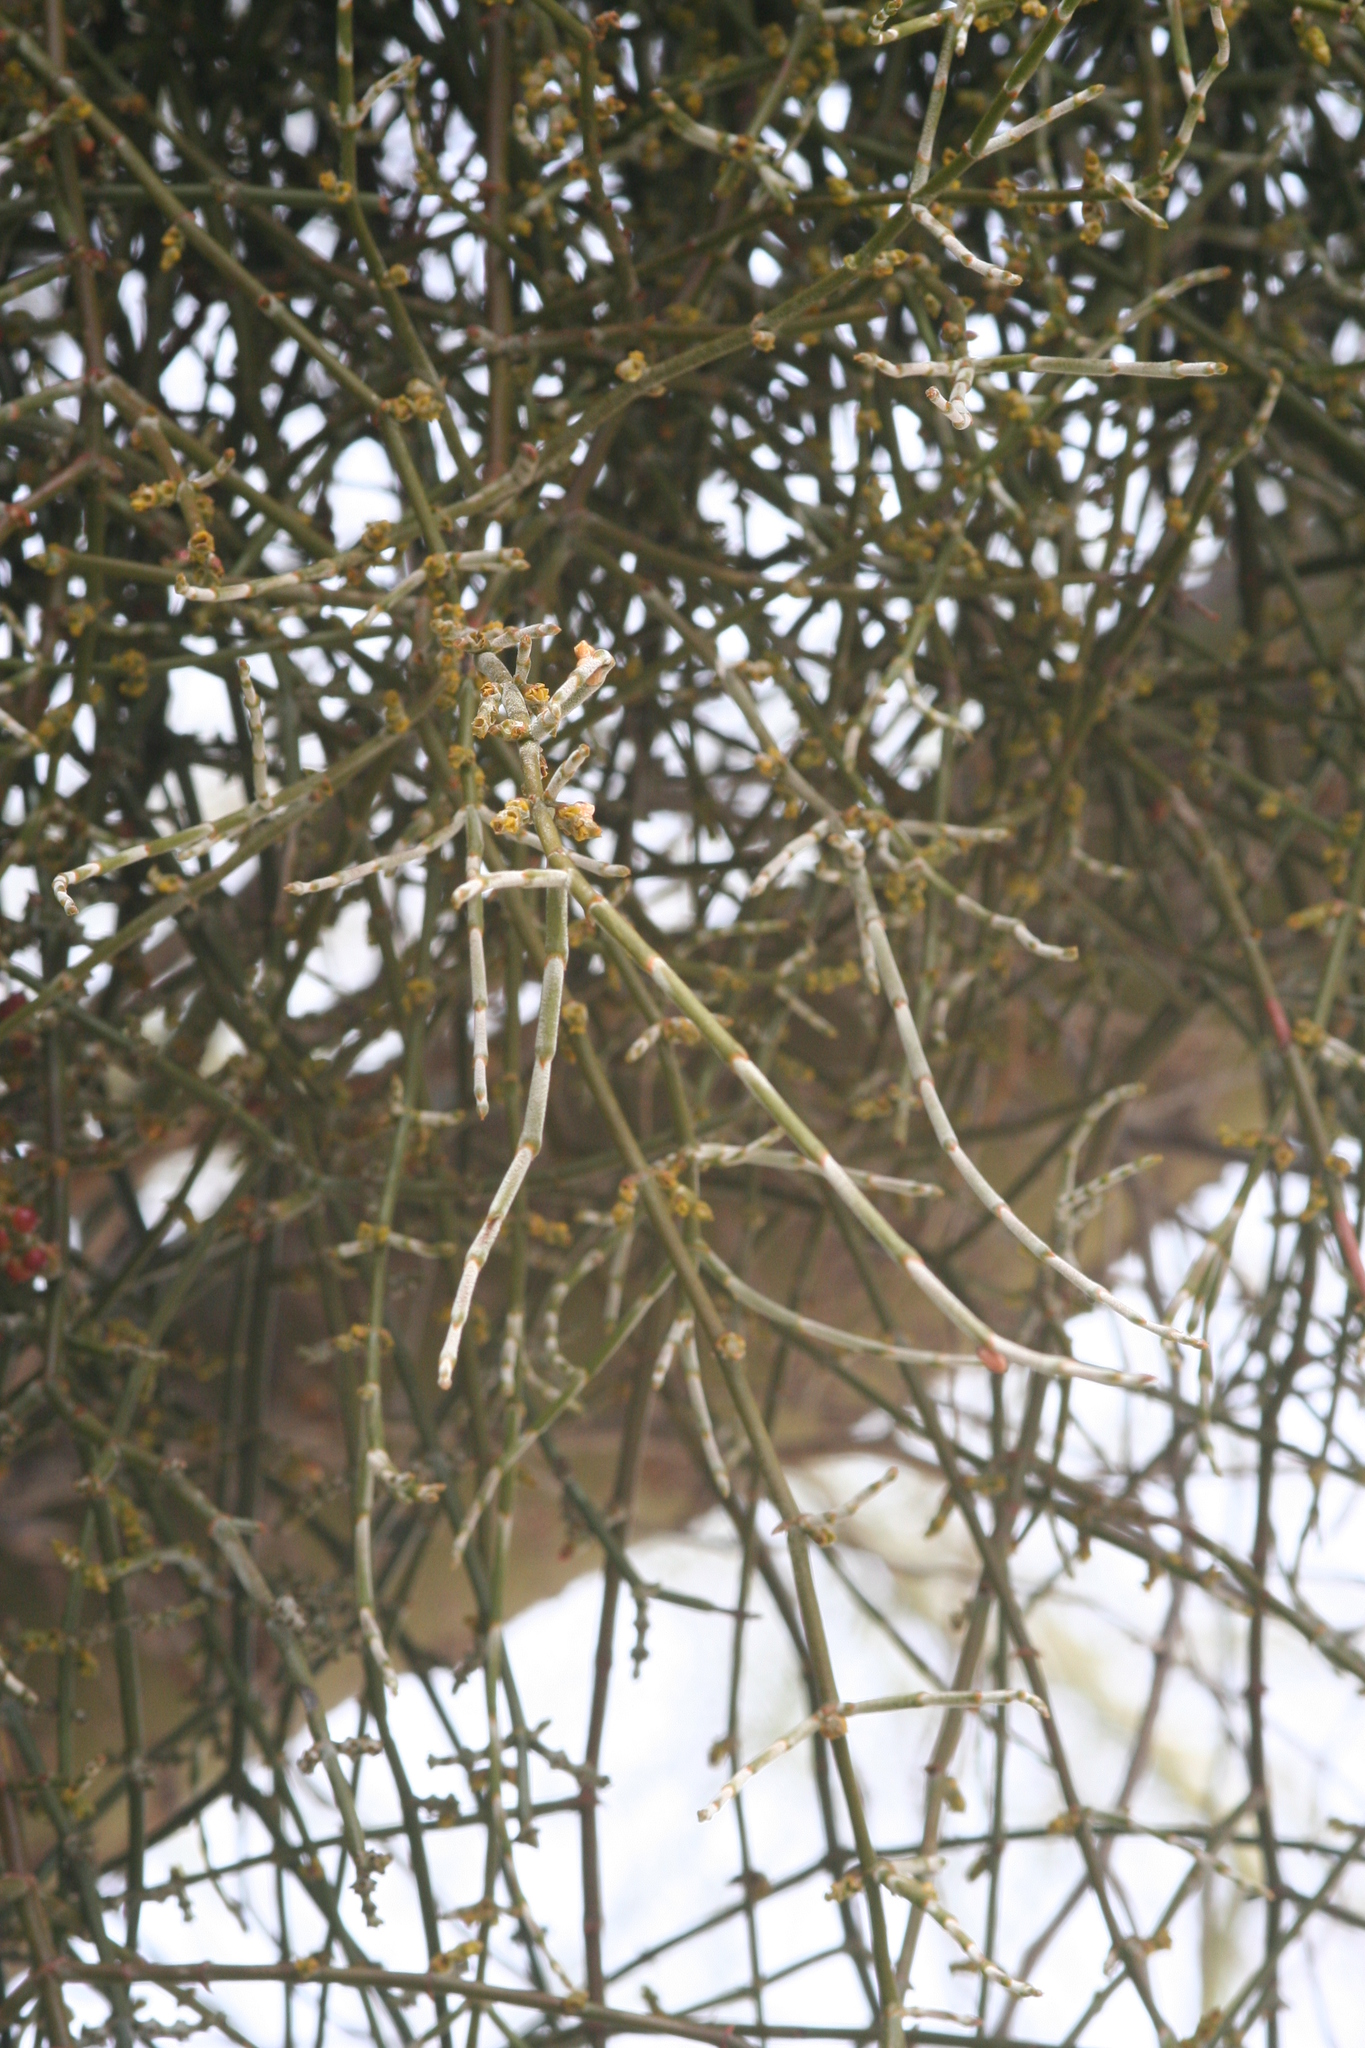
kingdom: Plantae
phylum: Tracheophyta
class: Magnoliopsida
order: Santalales
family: Viscaceae
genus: Phoradendron
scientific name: Phoradendron californicum
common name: Acacia mistletoe
